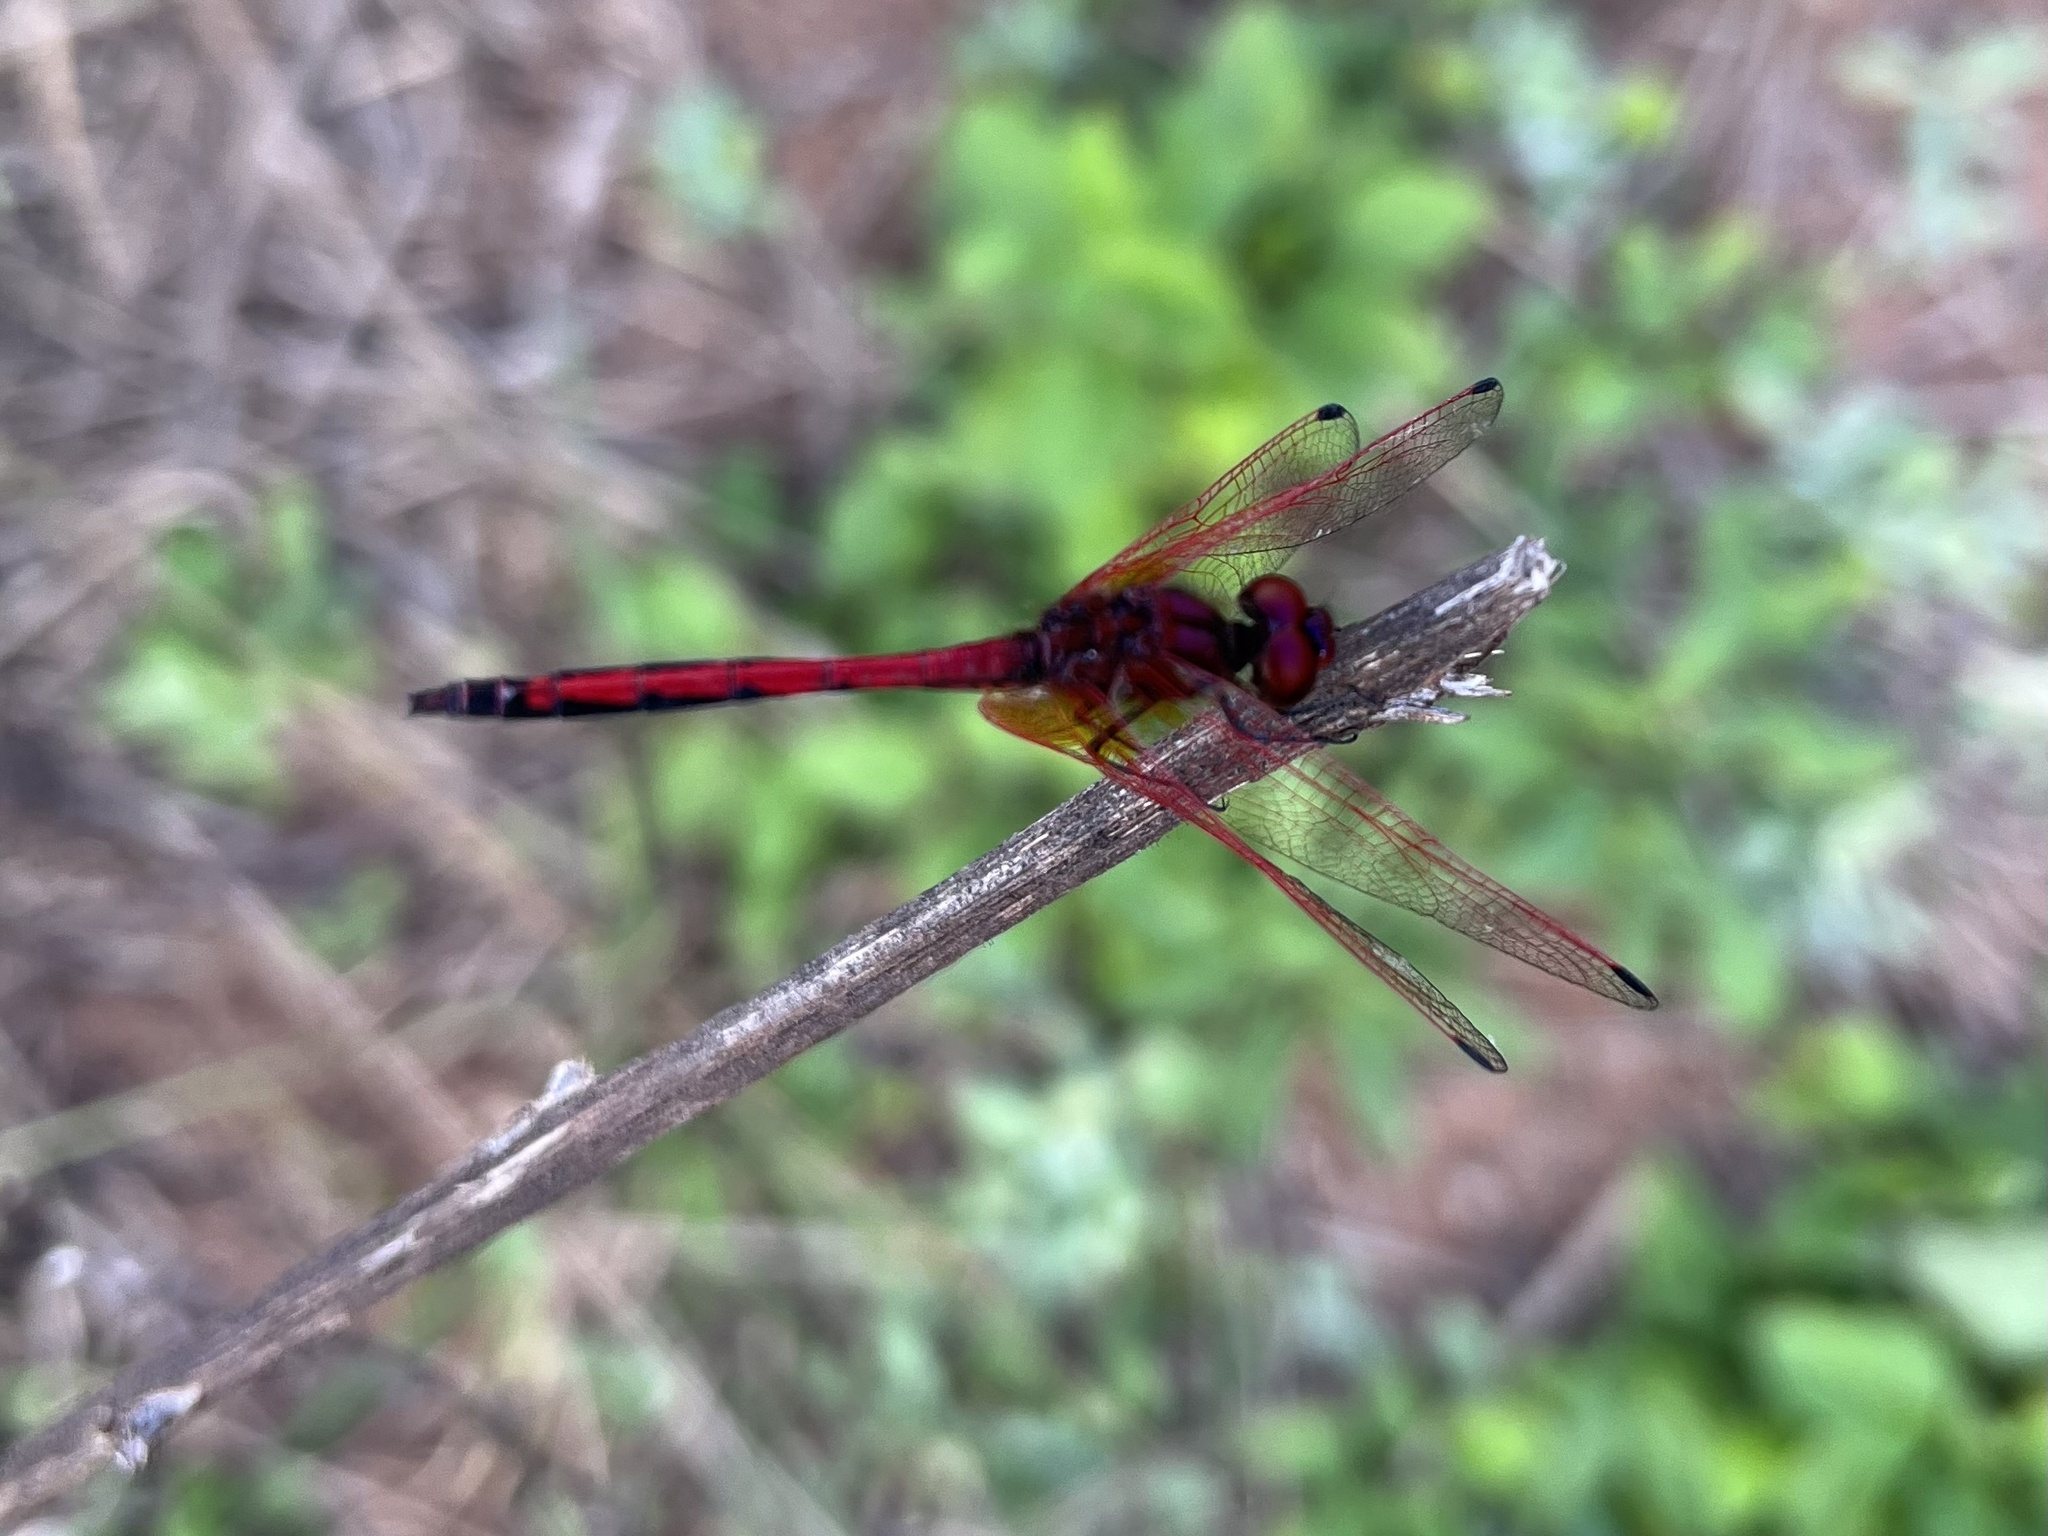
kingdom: Animalia
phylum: Arthropoda
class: Insecta
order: Odonata
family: Libellulidae
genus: Trithemis
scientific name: Trithemis arteriosa
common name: Red-veined dropwing
